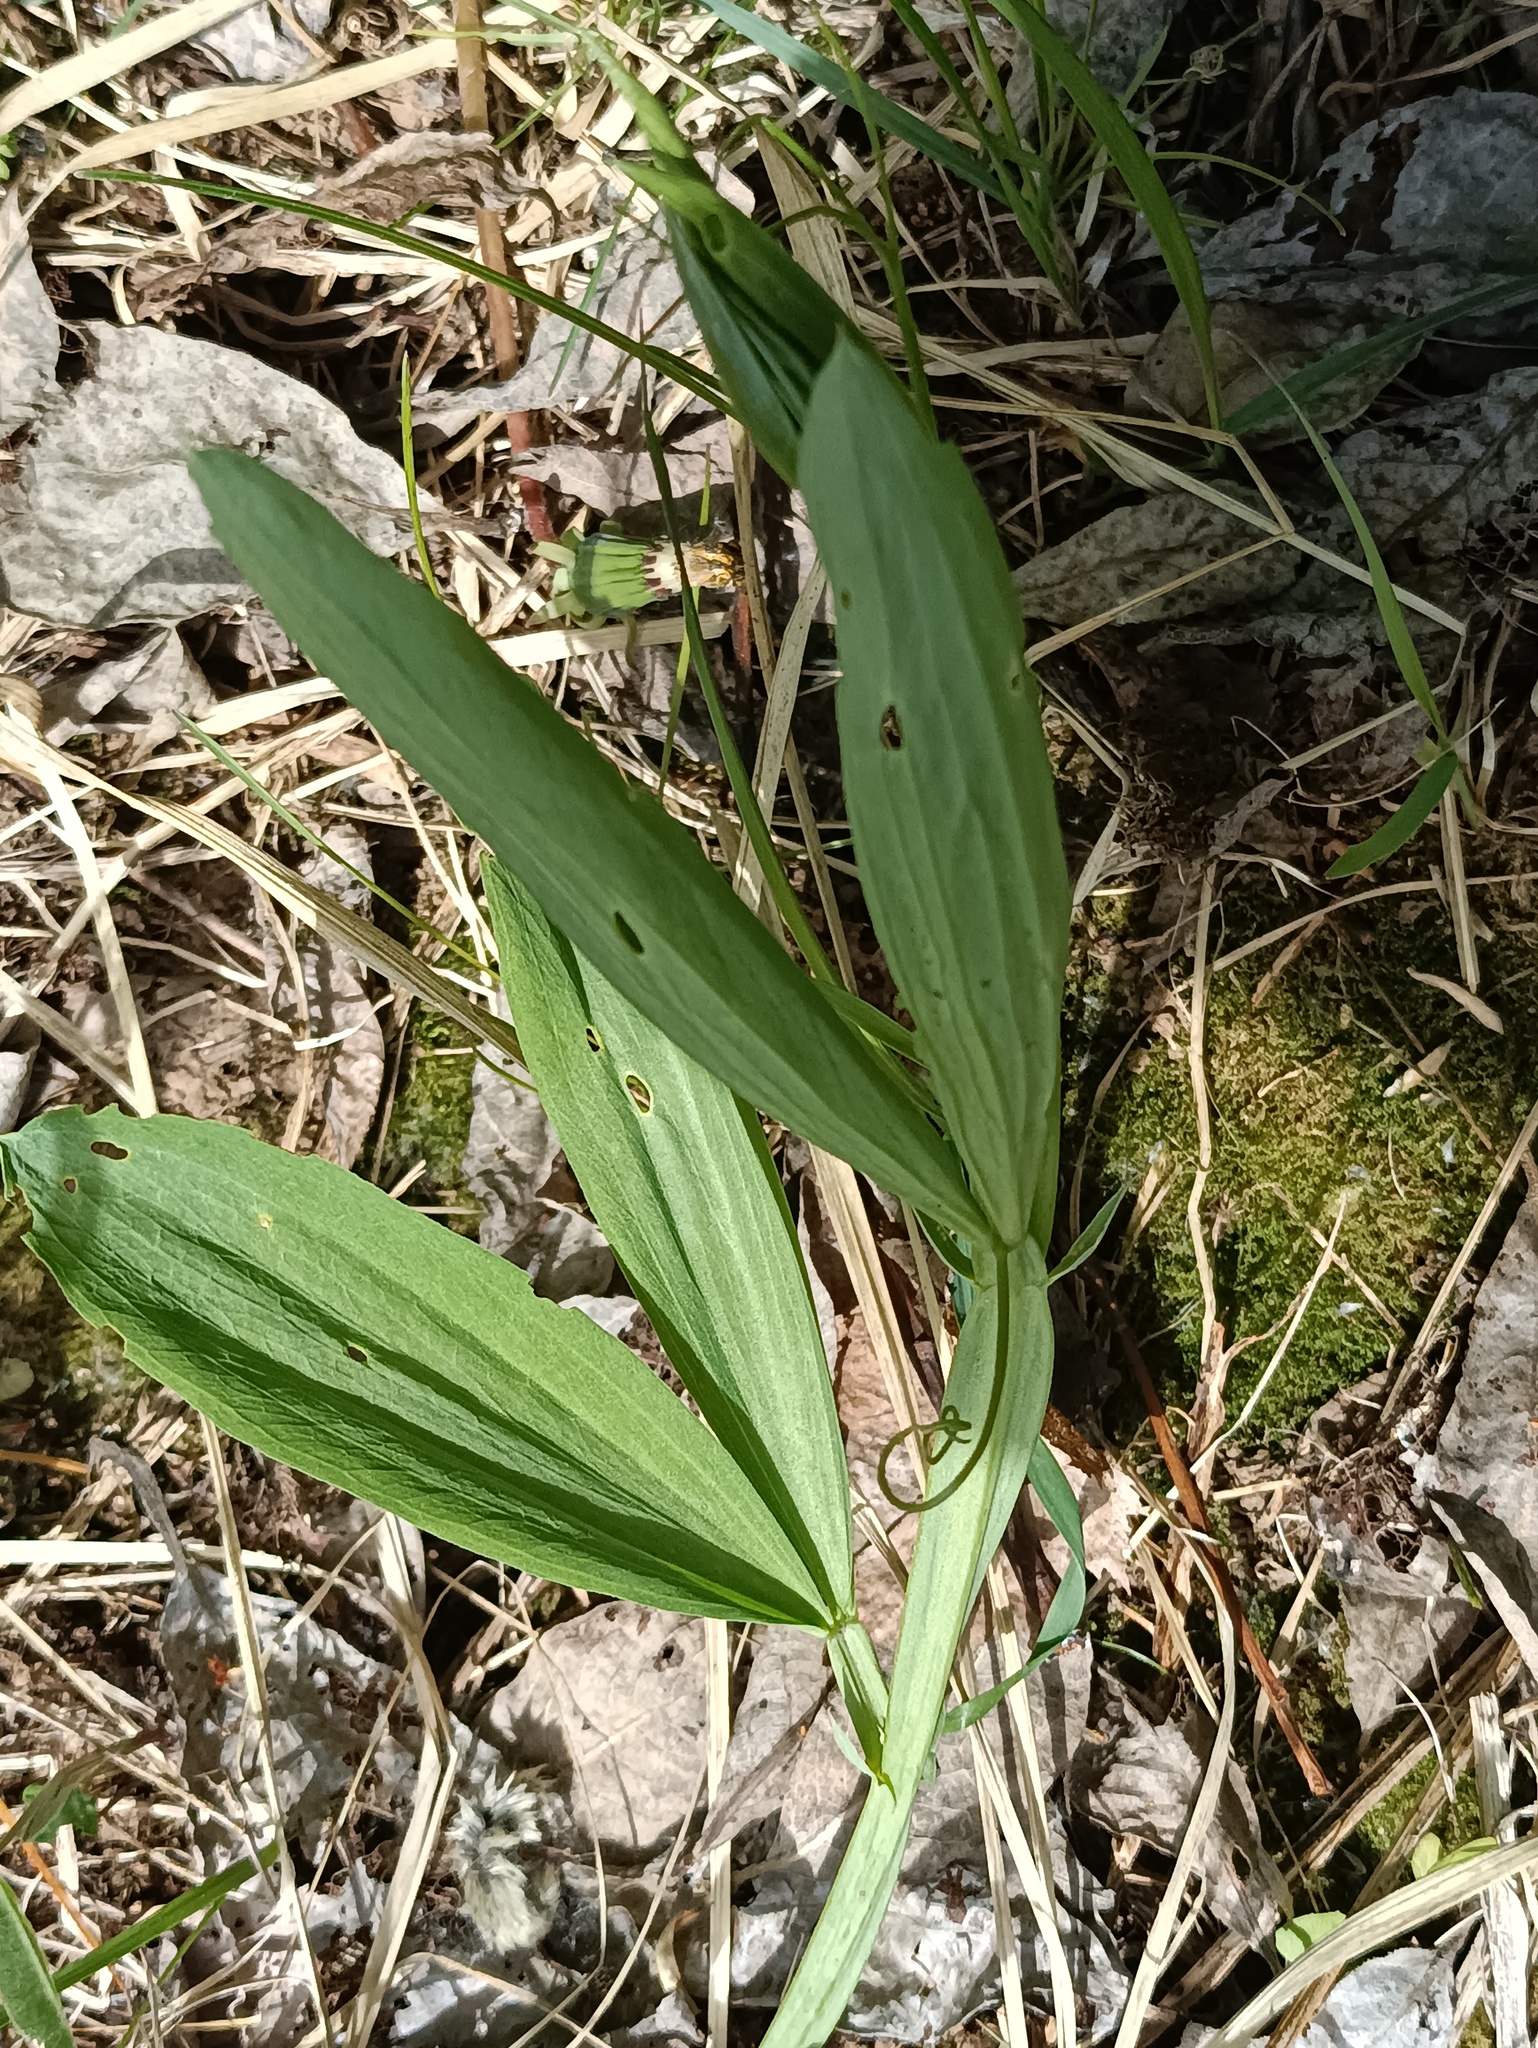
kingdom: Plantae
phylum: Tracheophyta
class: Magnoliopsida
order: Fabales
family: Fabaceae
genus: Lathyrus
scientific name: Lathyrus sylvestris
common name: Flat pea
